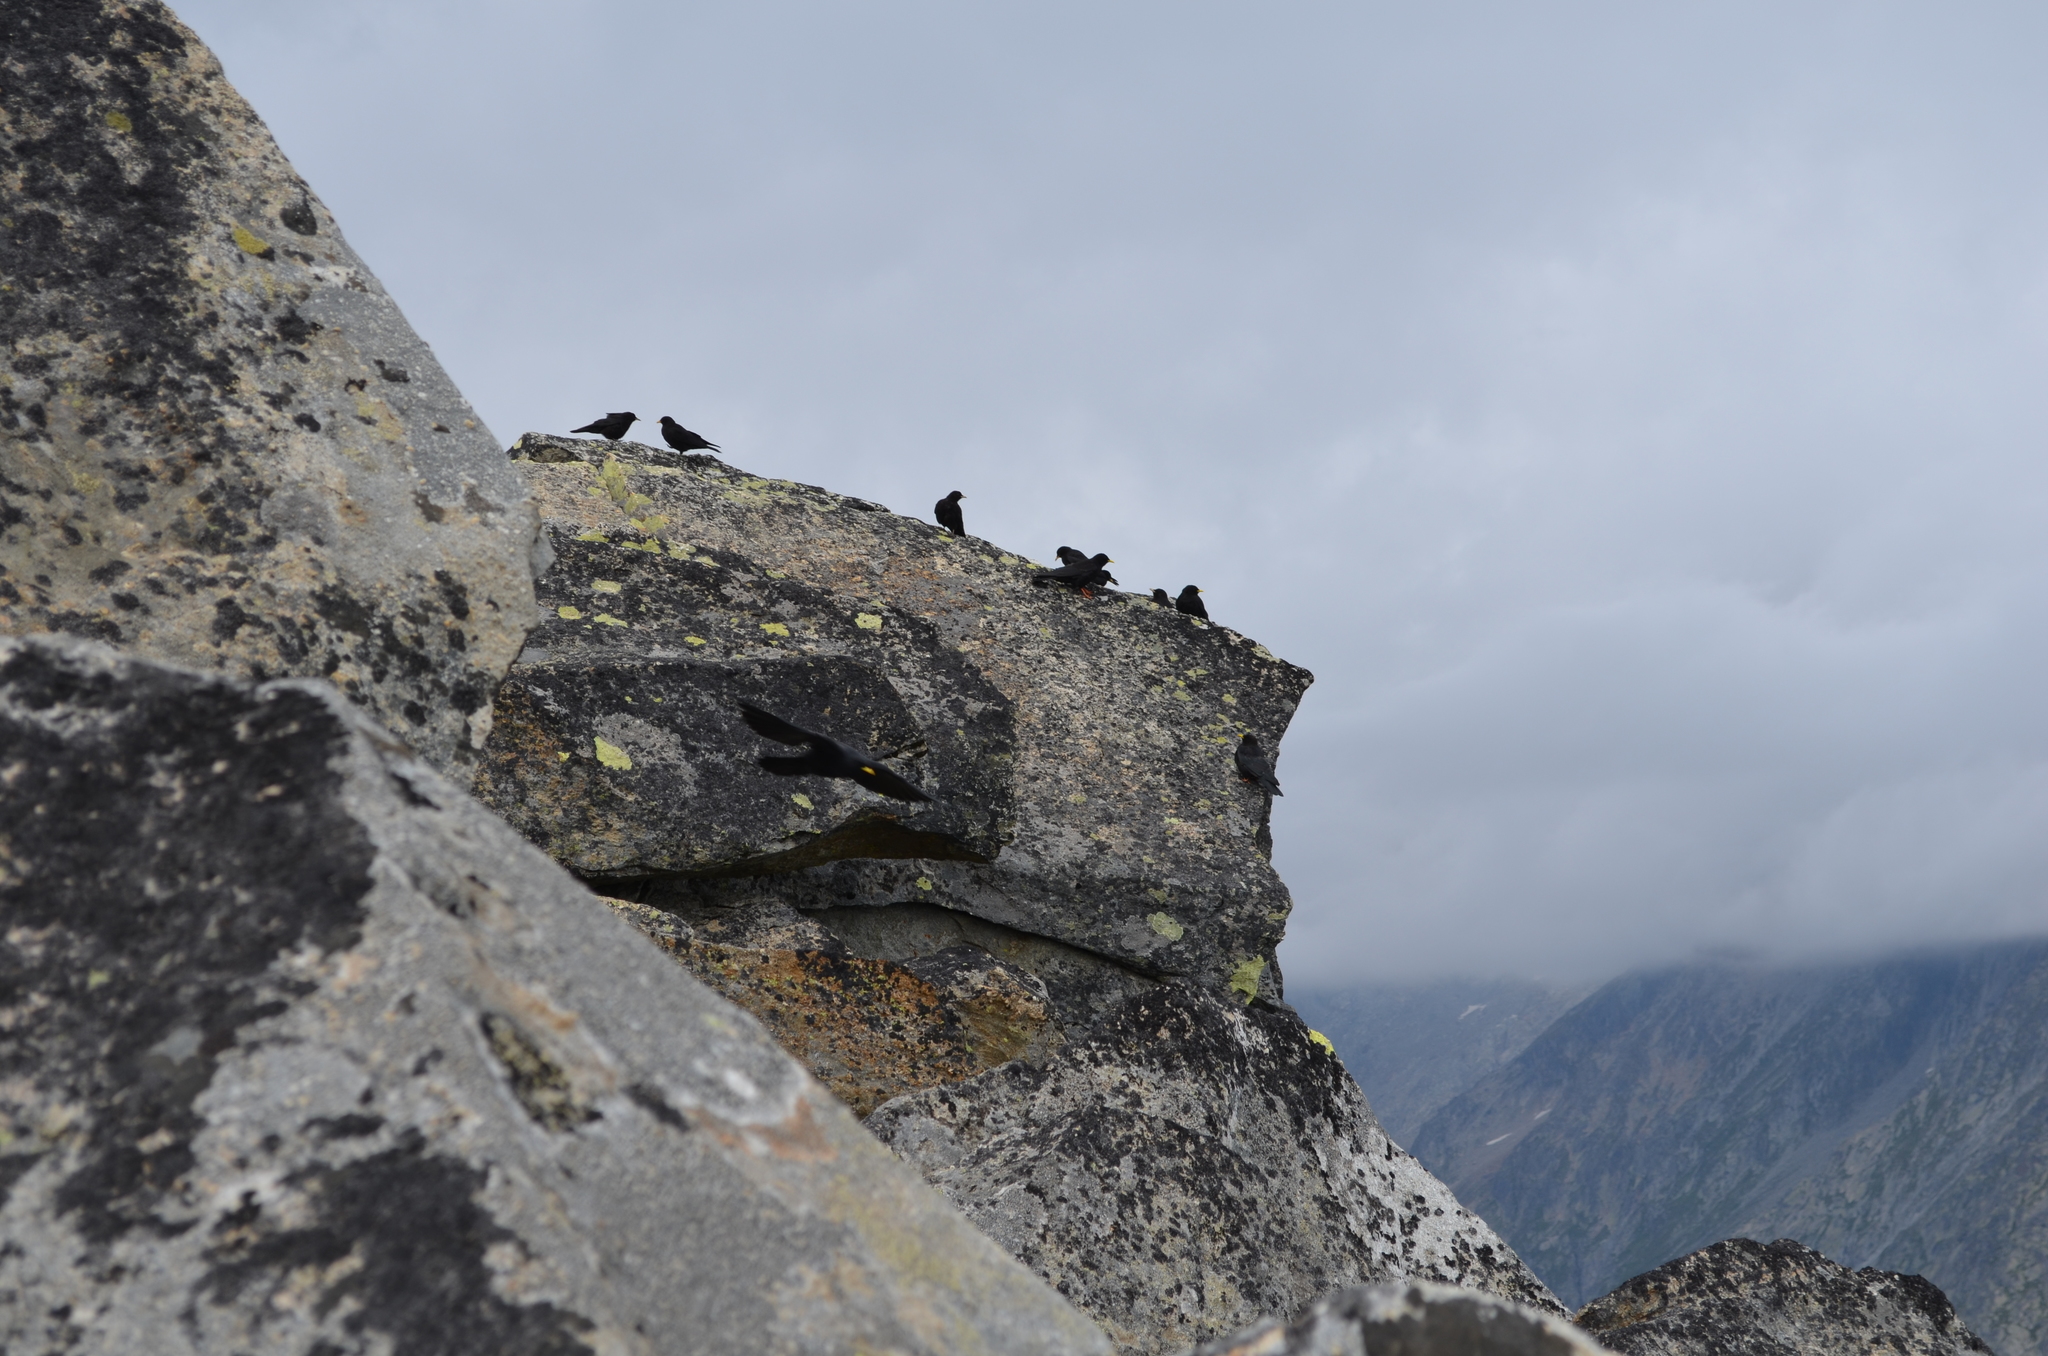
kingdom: Animalia
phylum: Chordata
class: Aves
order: Passeriformes
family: Corvidae
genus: Pyrrhocorax
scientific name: Pyrrhocorax graculus
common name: Alpine chough
